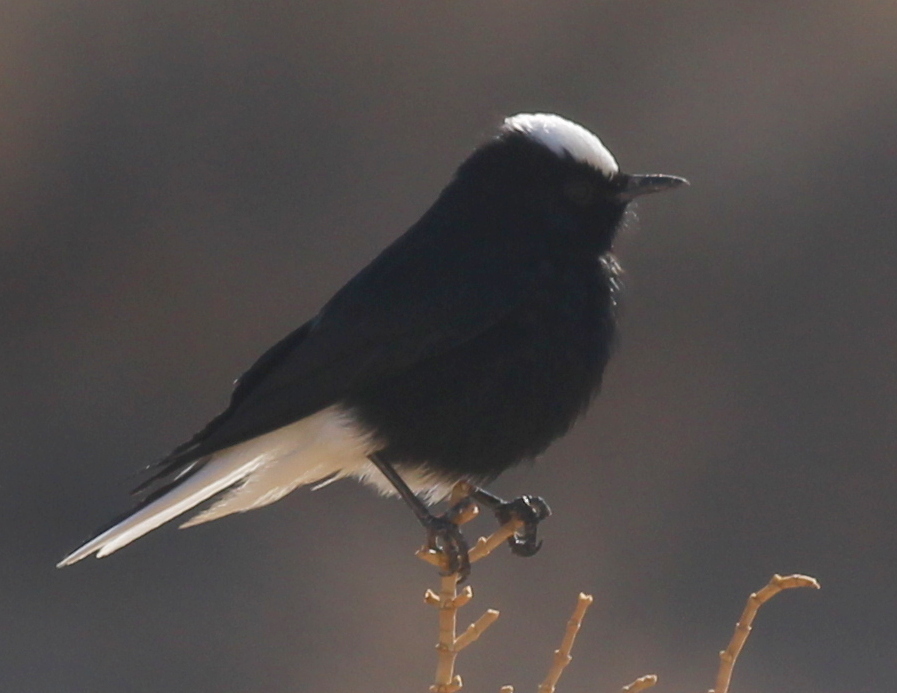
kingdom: Animalia
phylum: Chordata
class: Aves
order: Passeriformes
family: Muscicapidae
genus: Oenanthe
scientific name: Oenanthe leucopyga
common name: White-crowned wheatear
